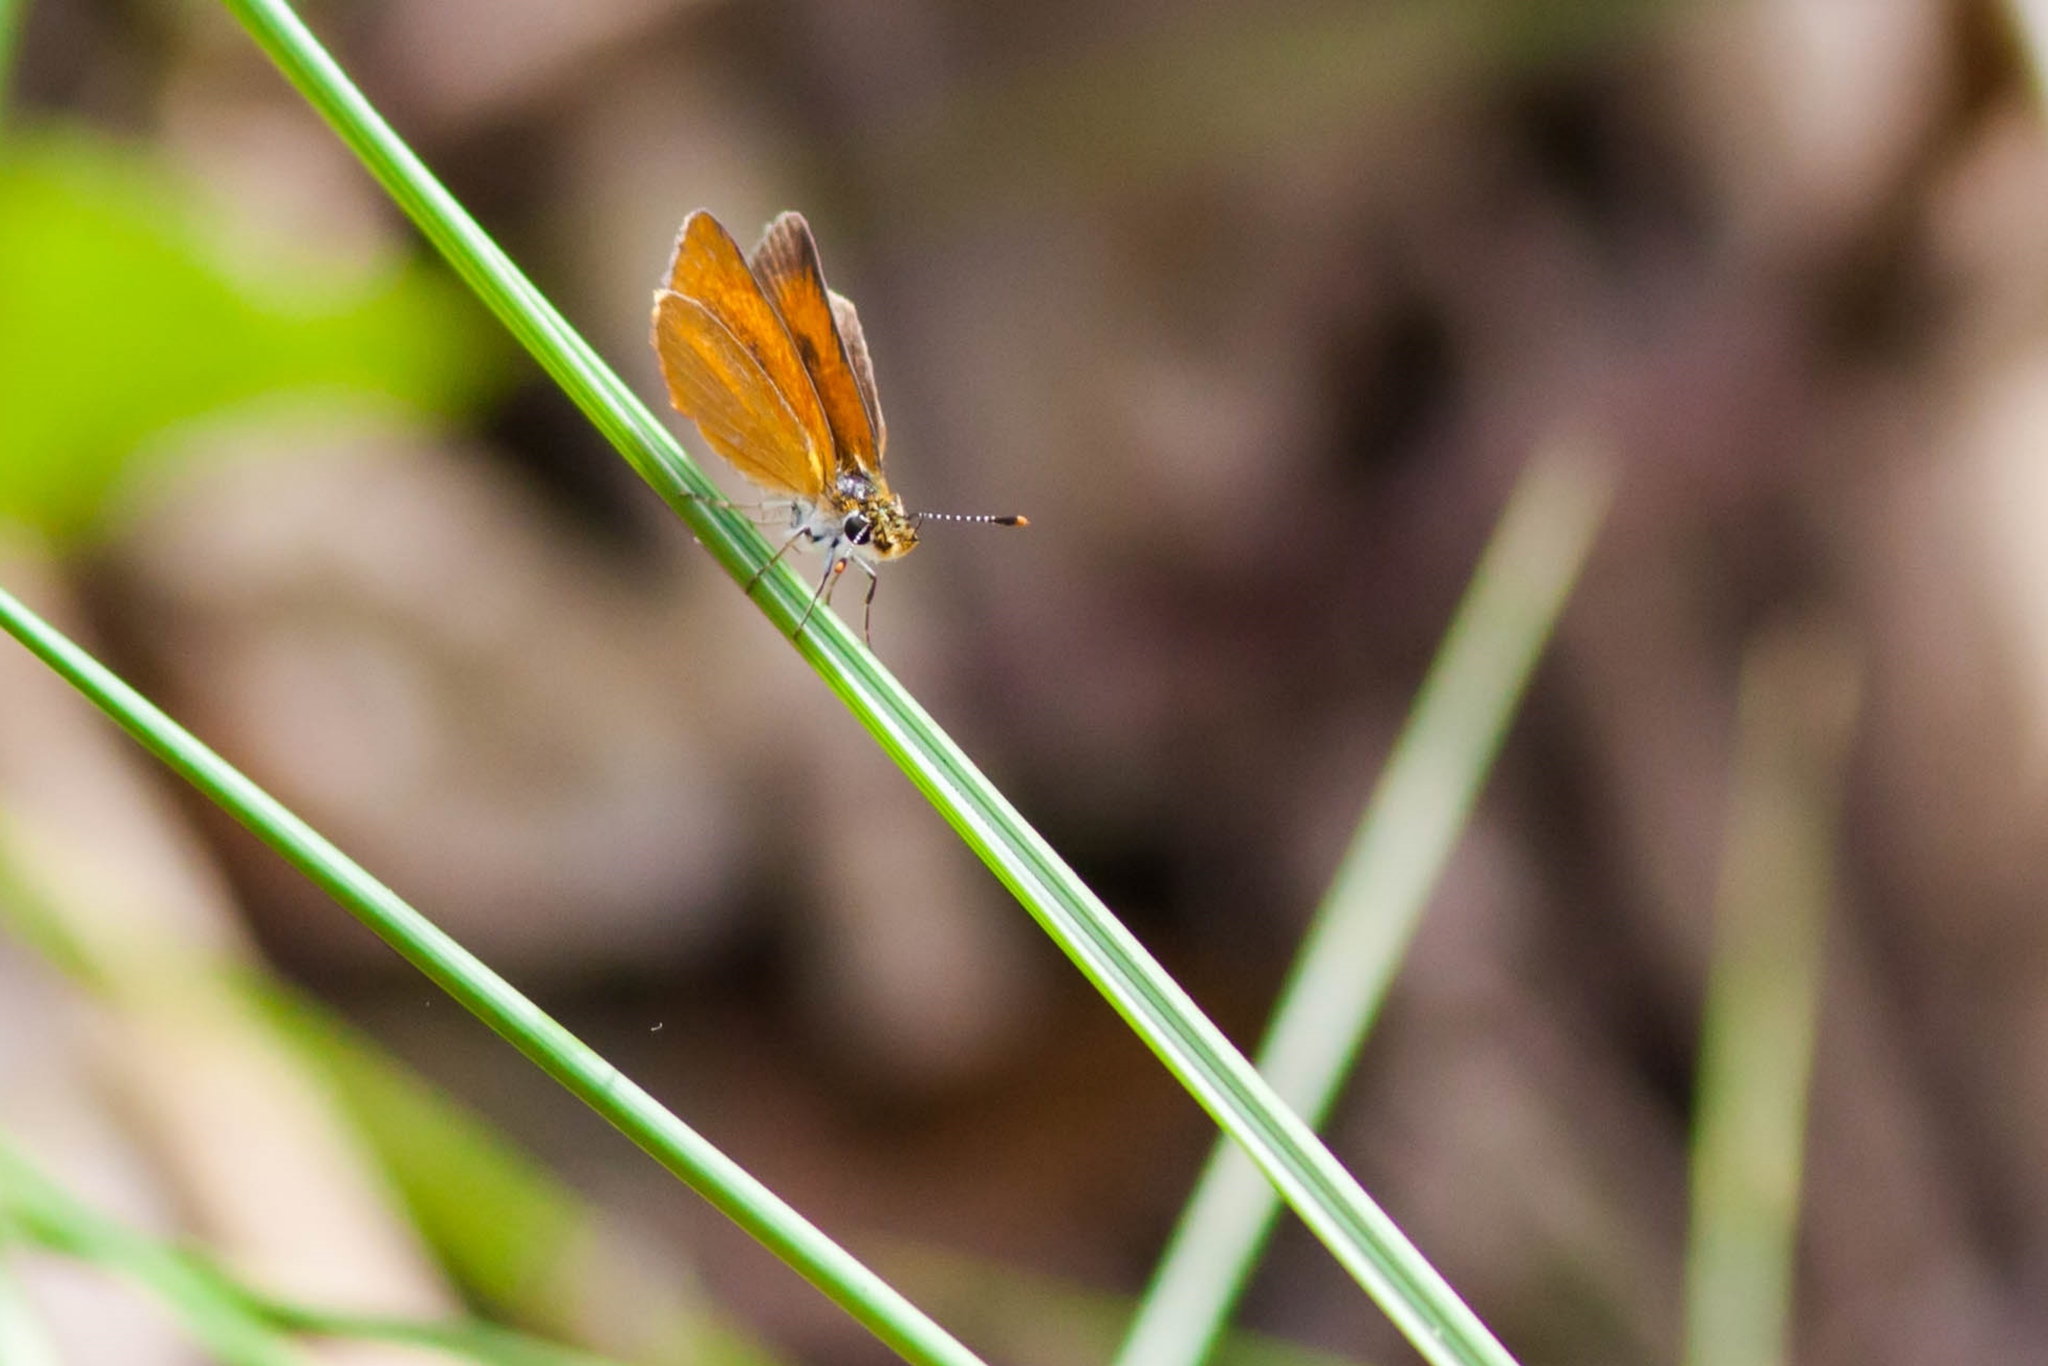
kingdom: Animalia
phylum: Arthropoda
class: Insecta
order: Lepidoptera
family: Hesperiidae
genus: Ancyloxypha
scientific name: Ancyloxypha numitor
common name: Least skipper
